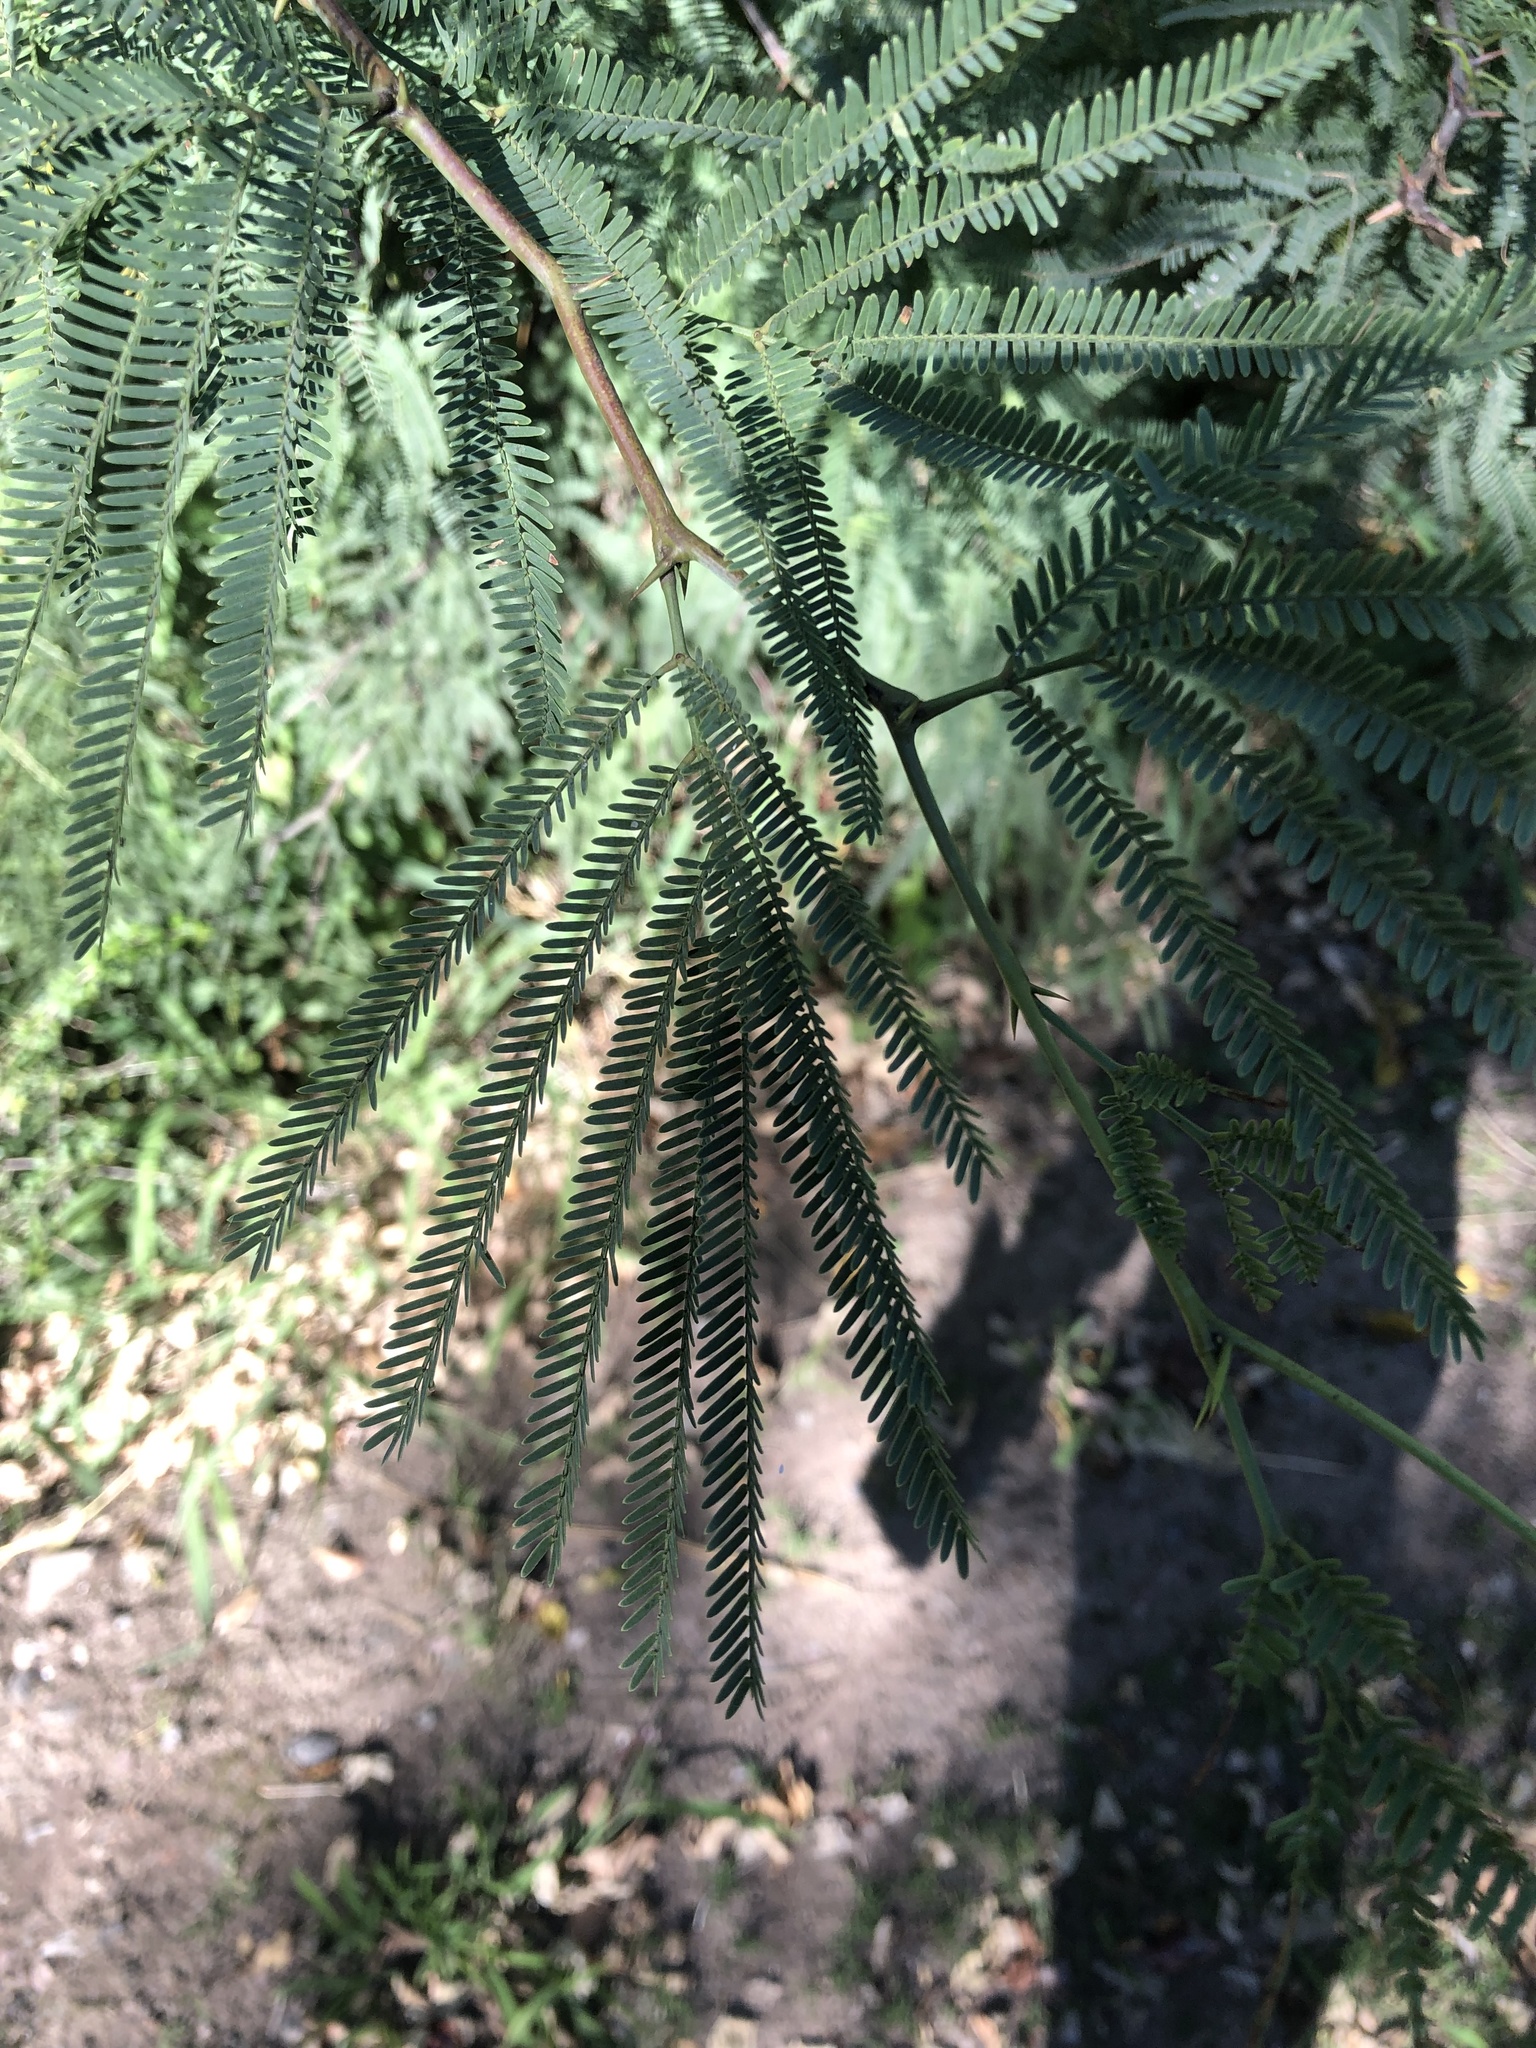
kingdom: Plantae
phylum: Tracheophyta
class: Magnoliopsida
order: Fabales
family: Fabaceae
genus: Prosopis
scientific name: Prosopis alba
